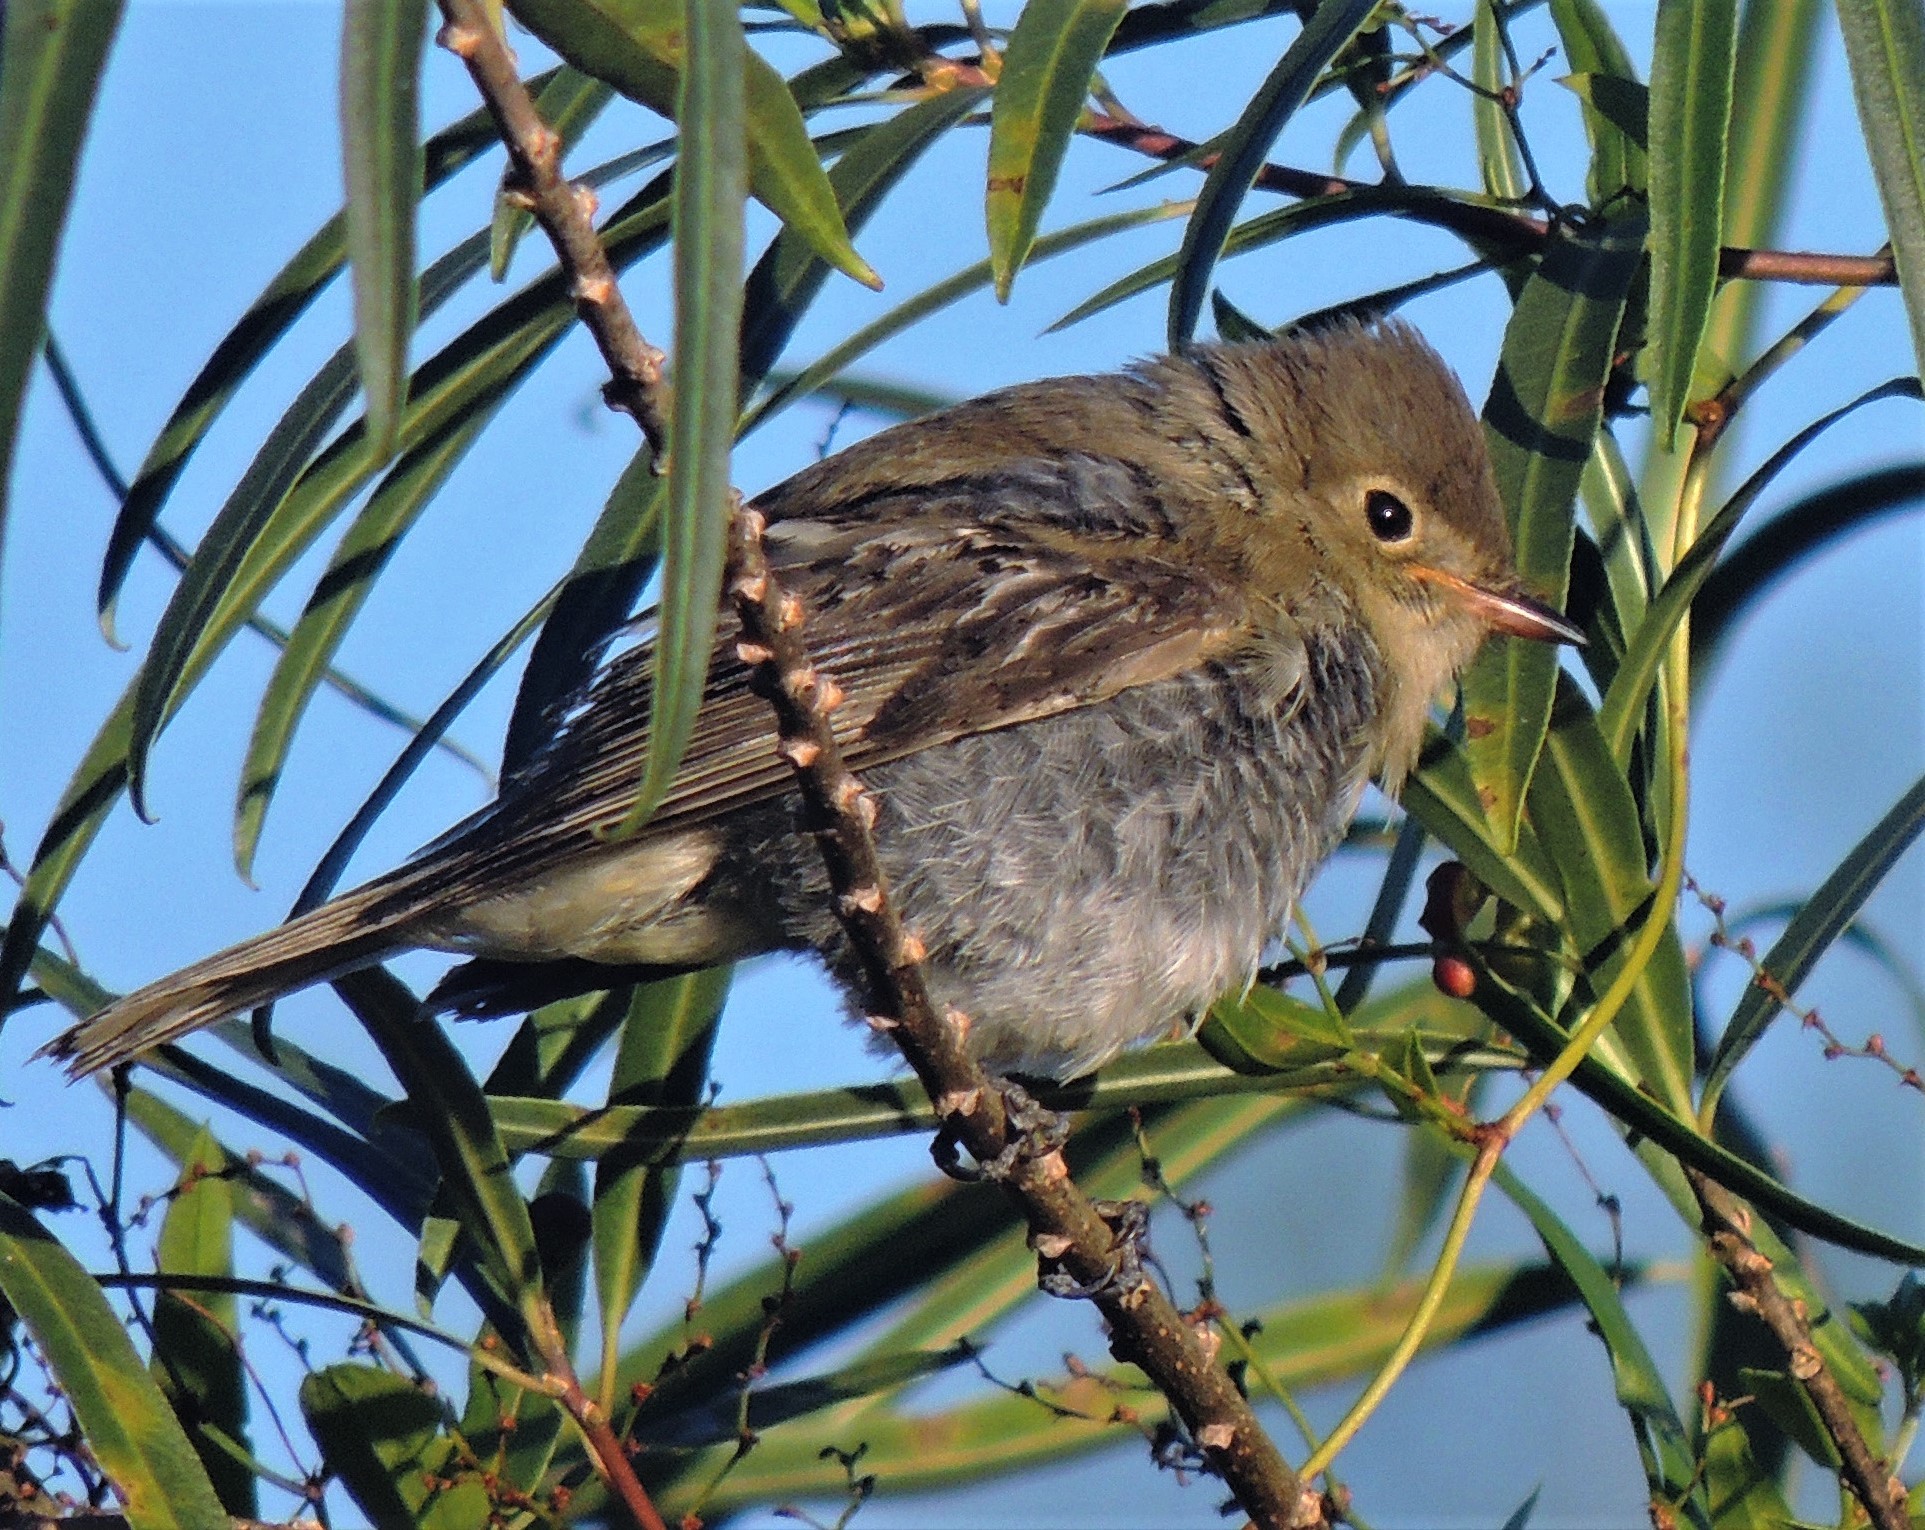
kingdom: Animalia
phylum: Chordata
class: Aves
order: Passeriformes
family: Tyrannidae
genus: Elaenia
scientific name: Elaenia albiceps
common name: White-crested elaenia
